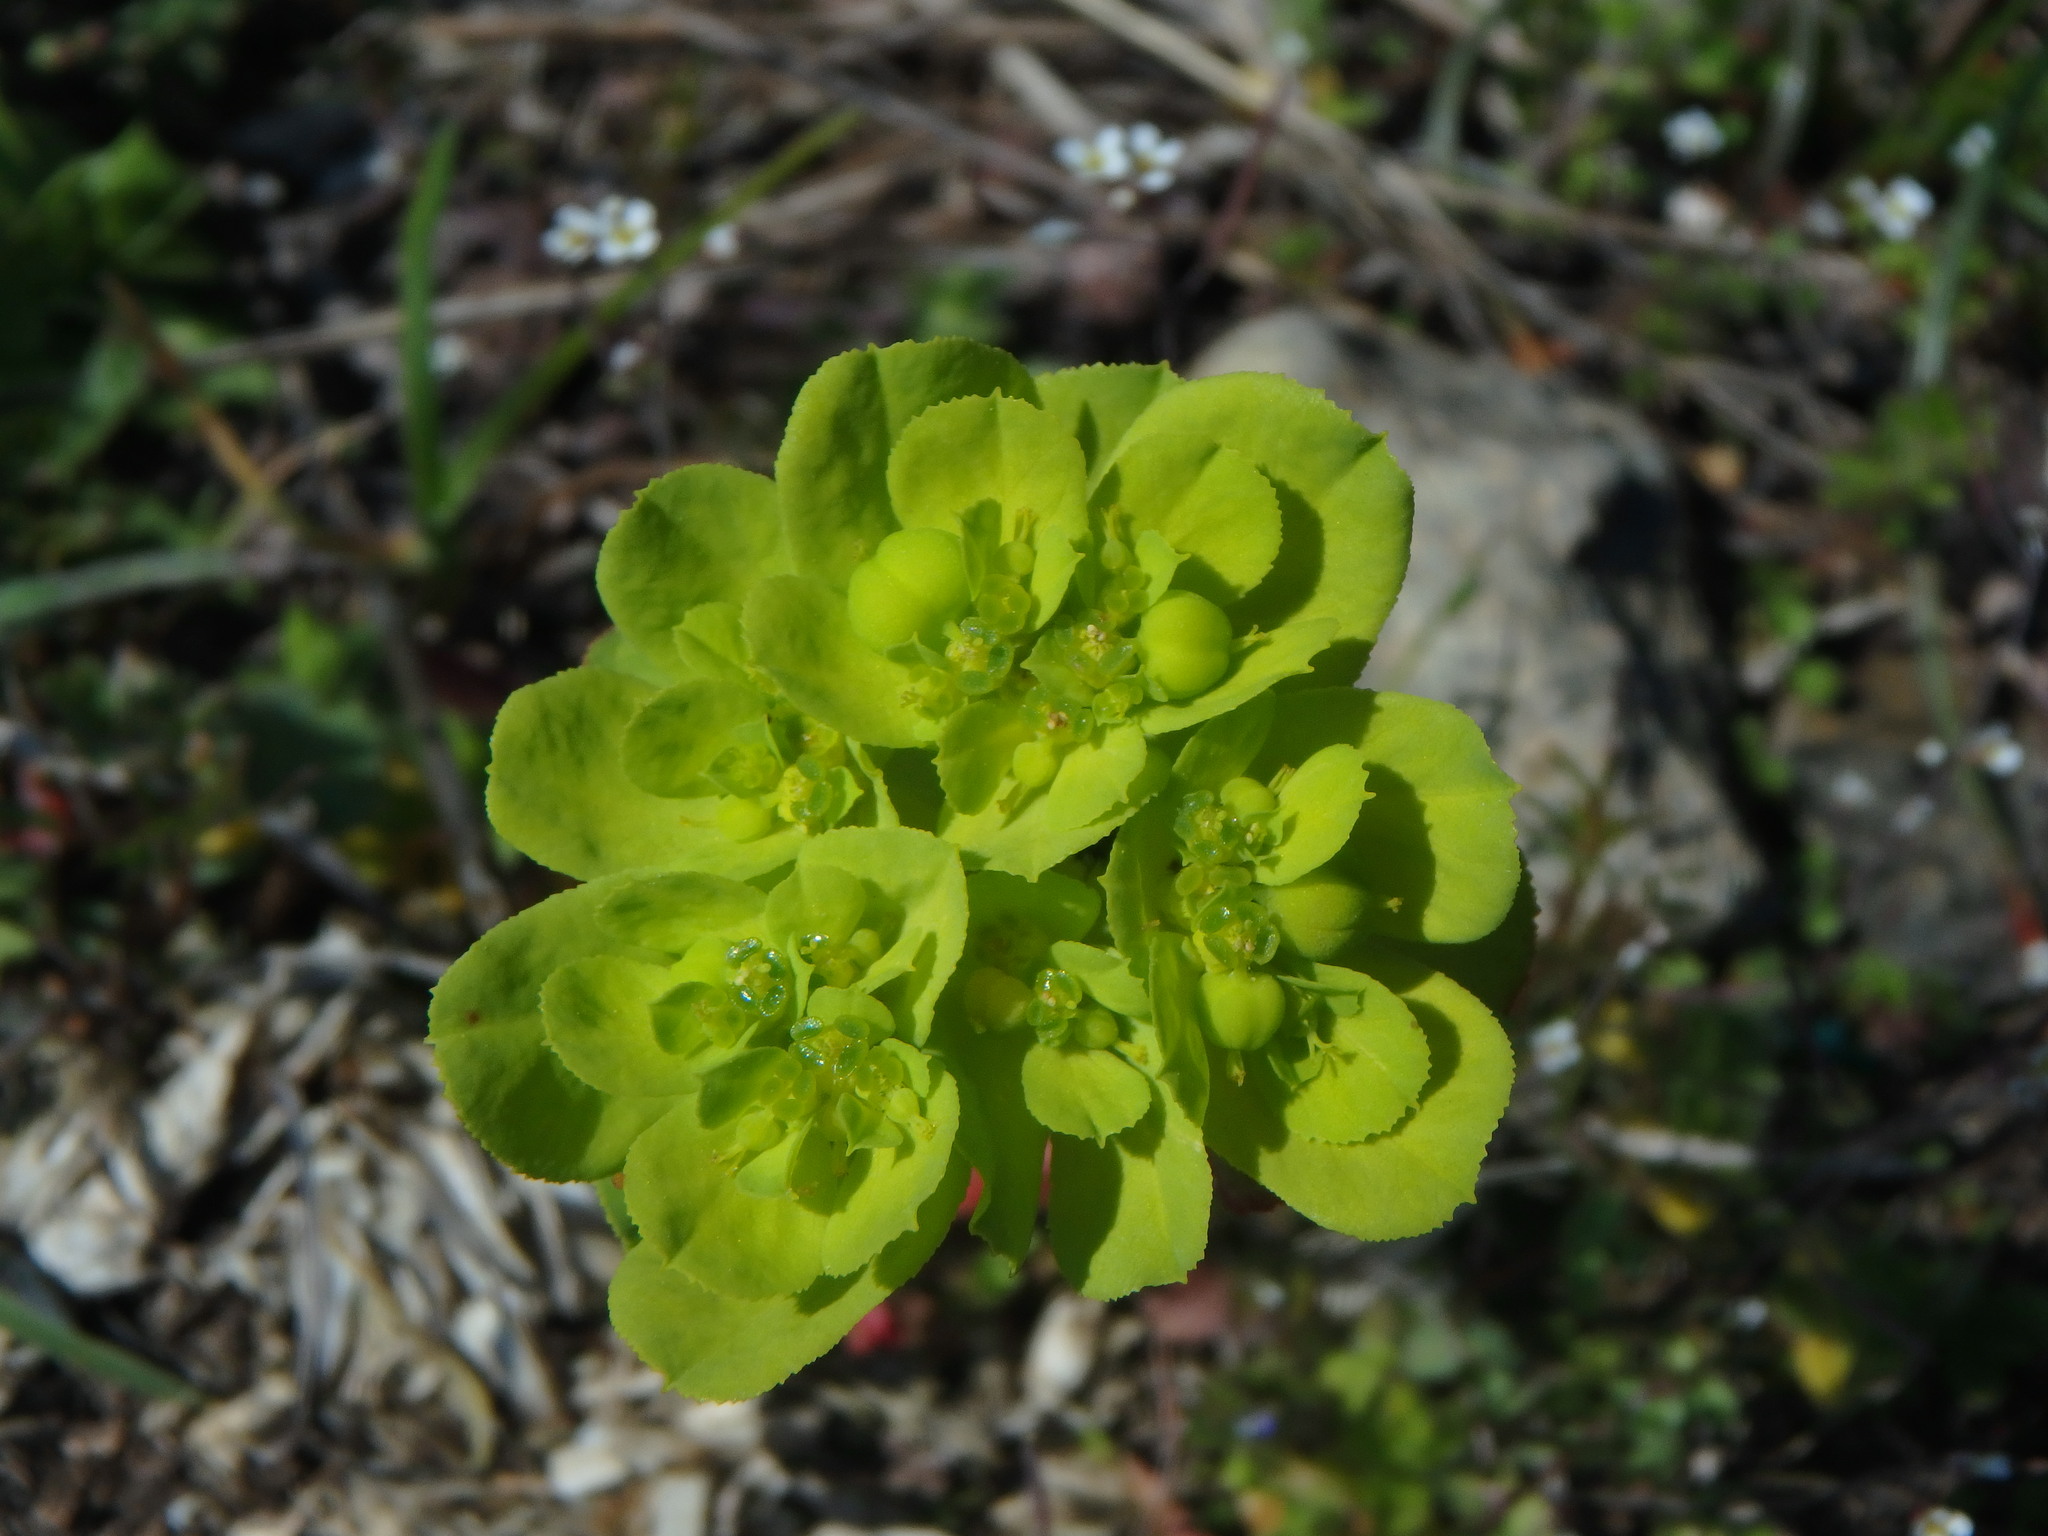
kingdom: Plantae
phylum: Tracheophyta
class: Magnoliopsida
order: Malpighiales
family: Euphorbiaceae
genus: Euphorbia
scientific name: Euphorbia helioscopia
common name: Sun spurge
